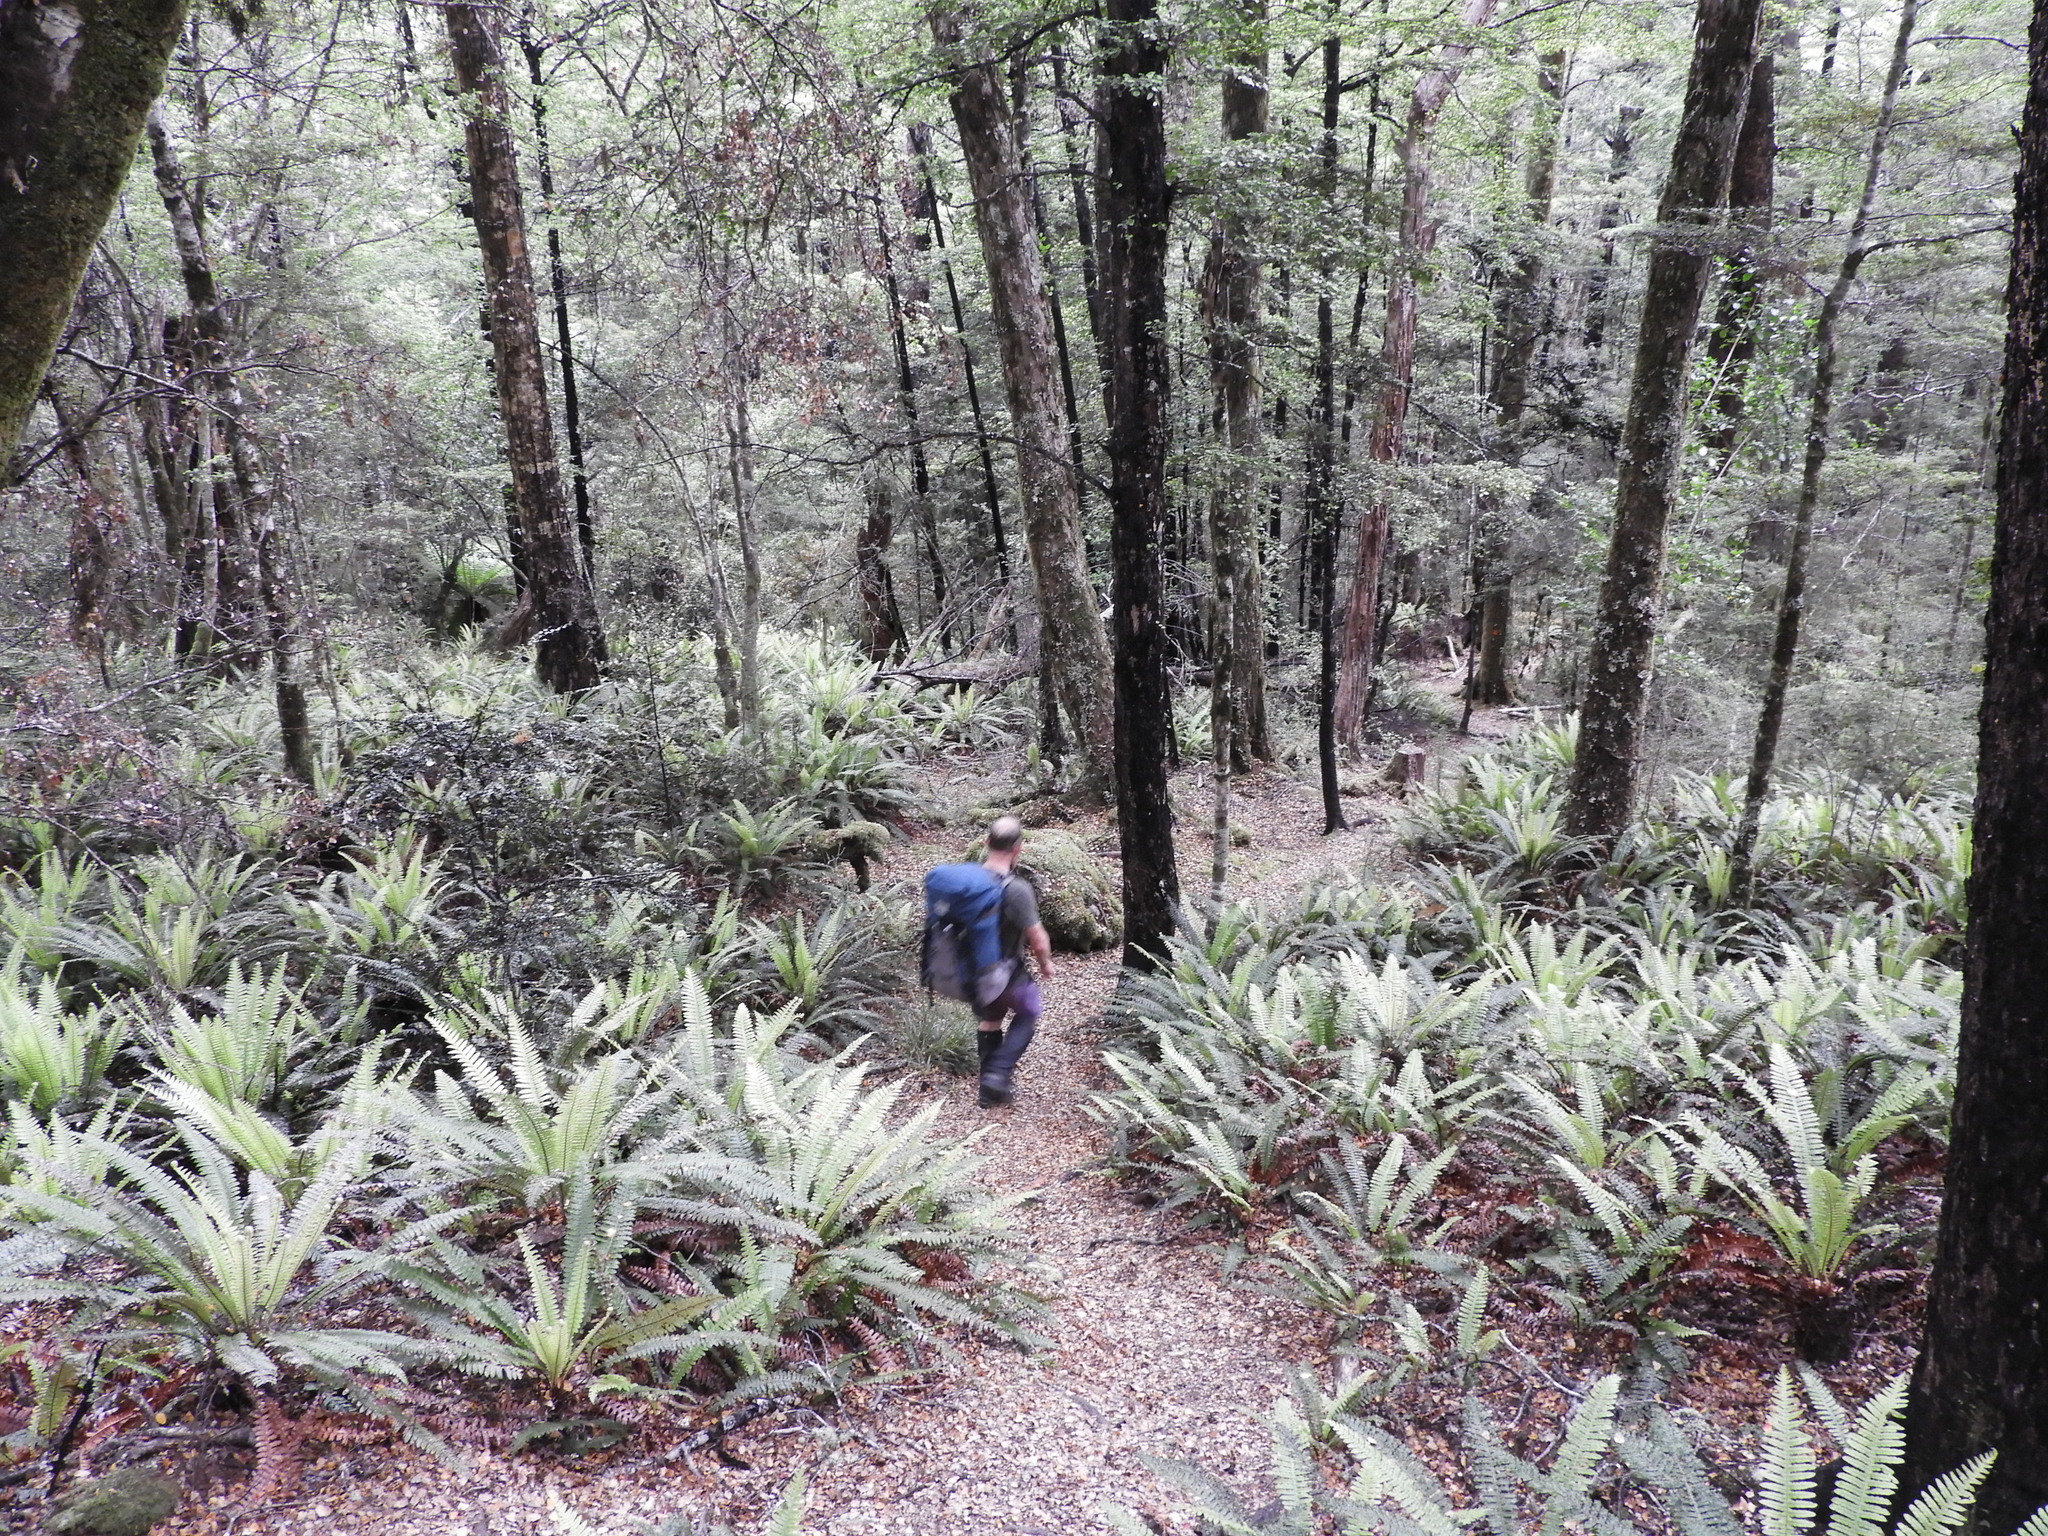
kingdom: Plantae
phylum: Tracheophyta
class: Polypodiopsida
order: Polypodiales
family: Blechnaceae
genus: Lomaria
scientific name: Lomaria discolor
